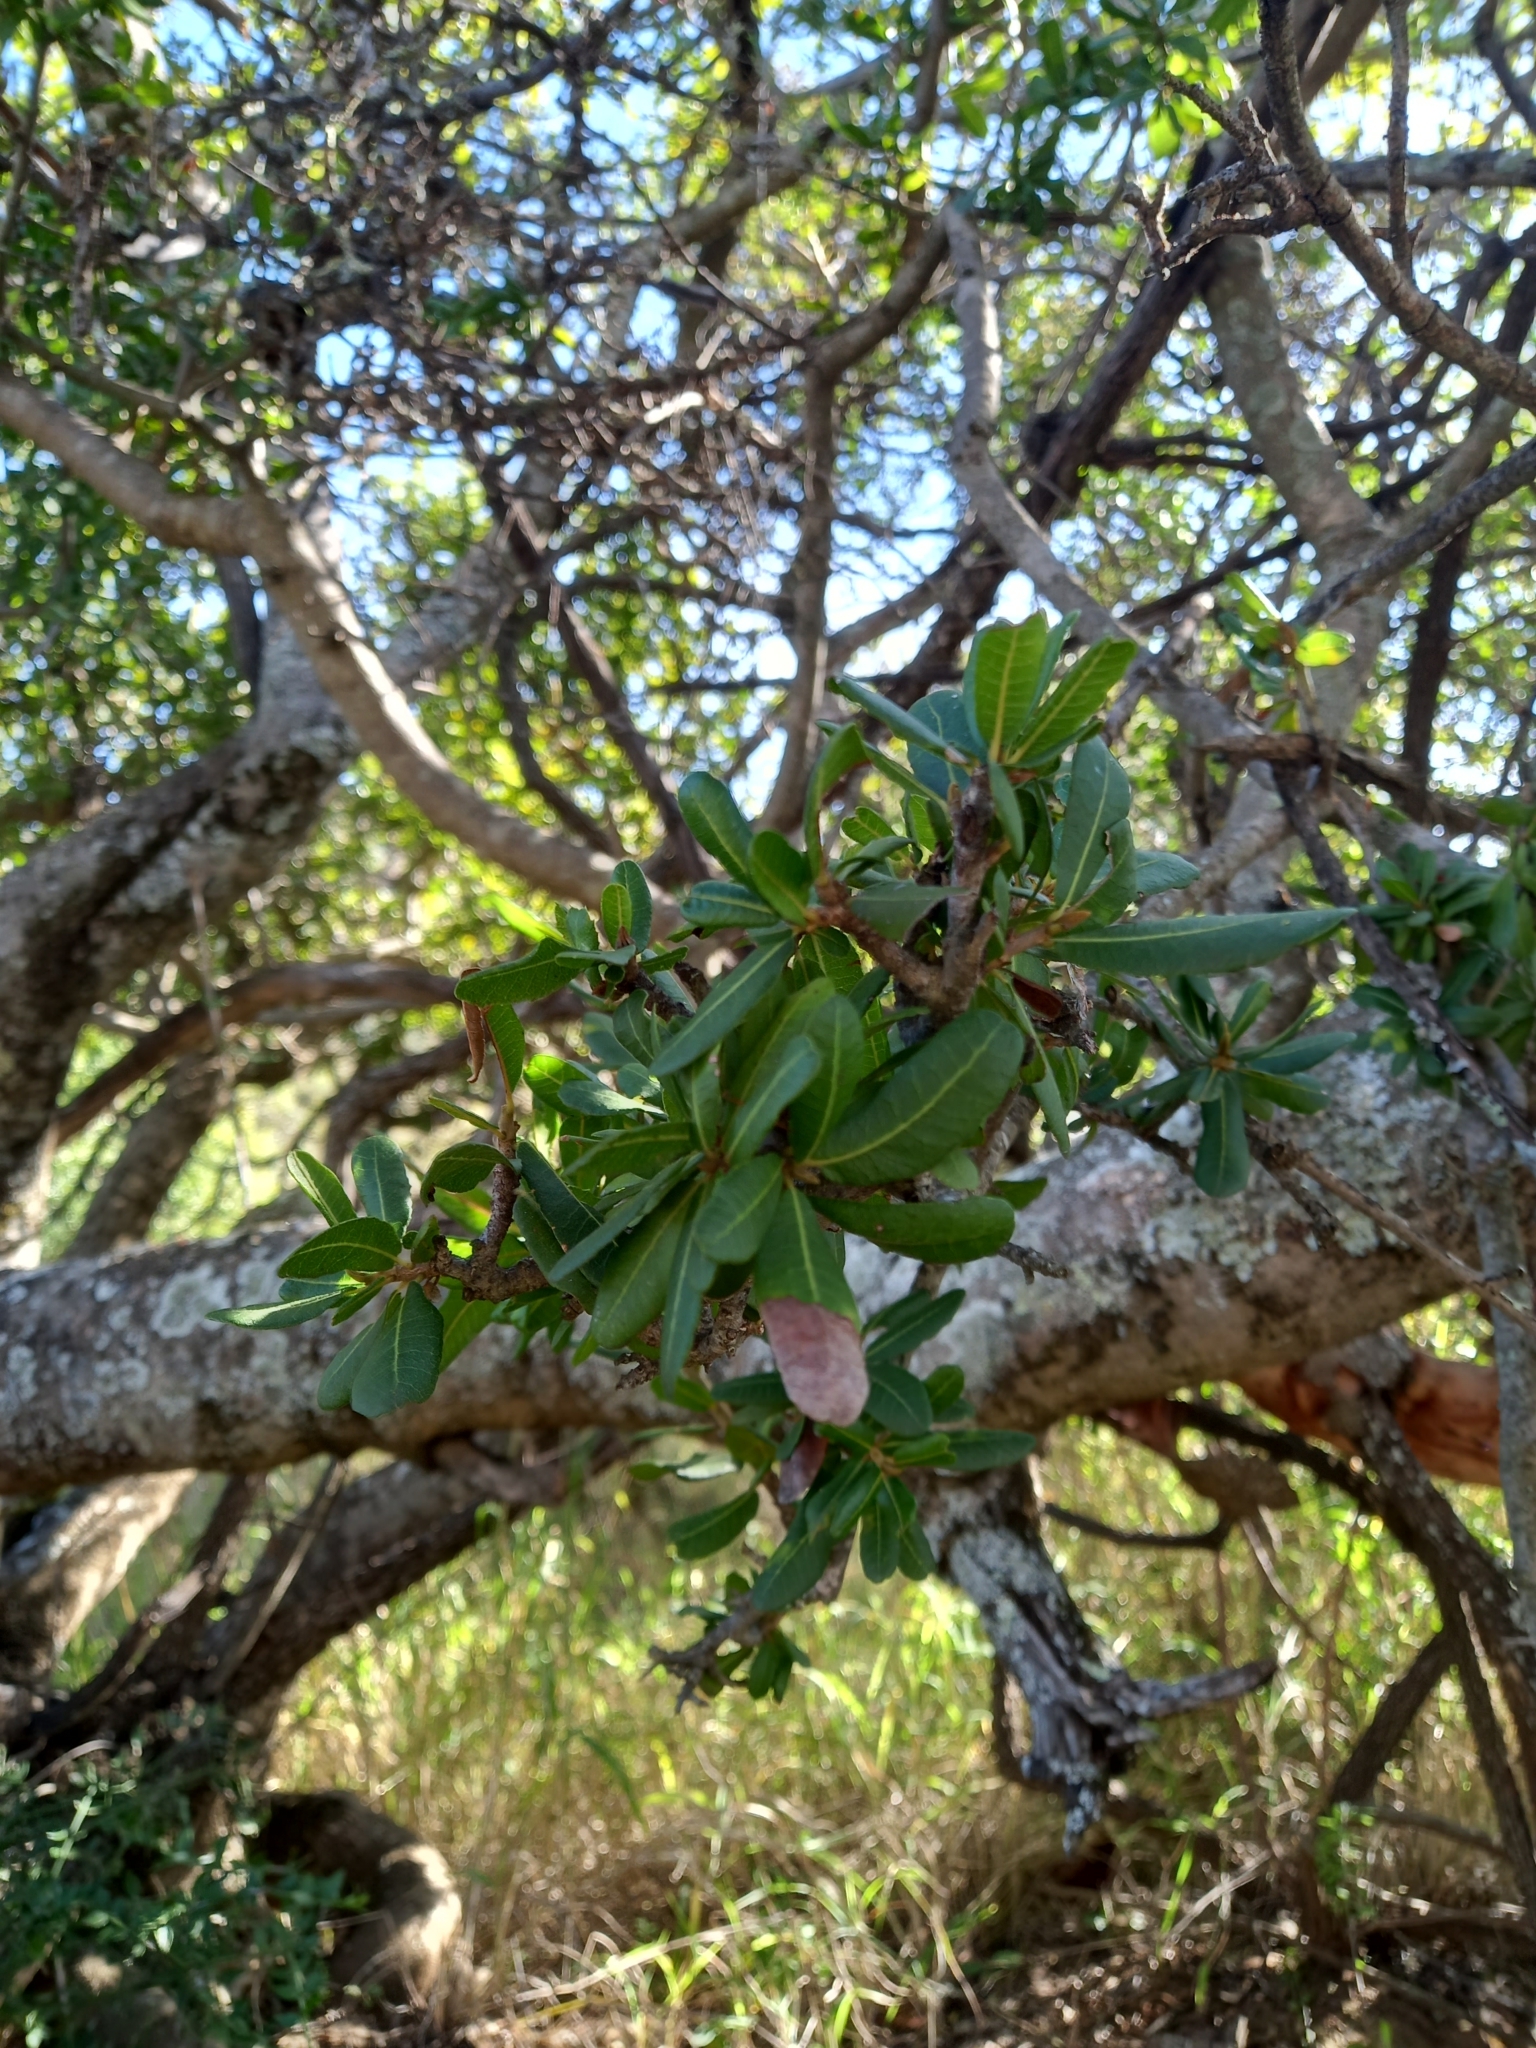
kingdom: Plantae
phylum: Tracheophyta
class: Magnoliopsida
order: Sapindales
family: Sapindaceae
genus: Pappea
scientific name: Pappea capensis
